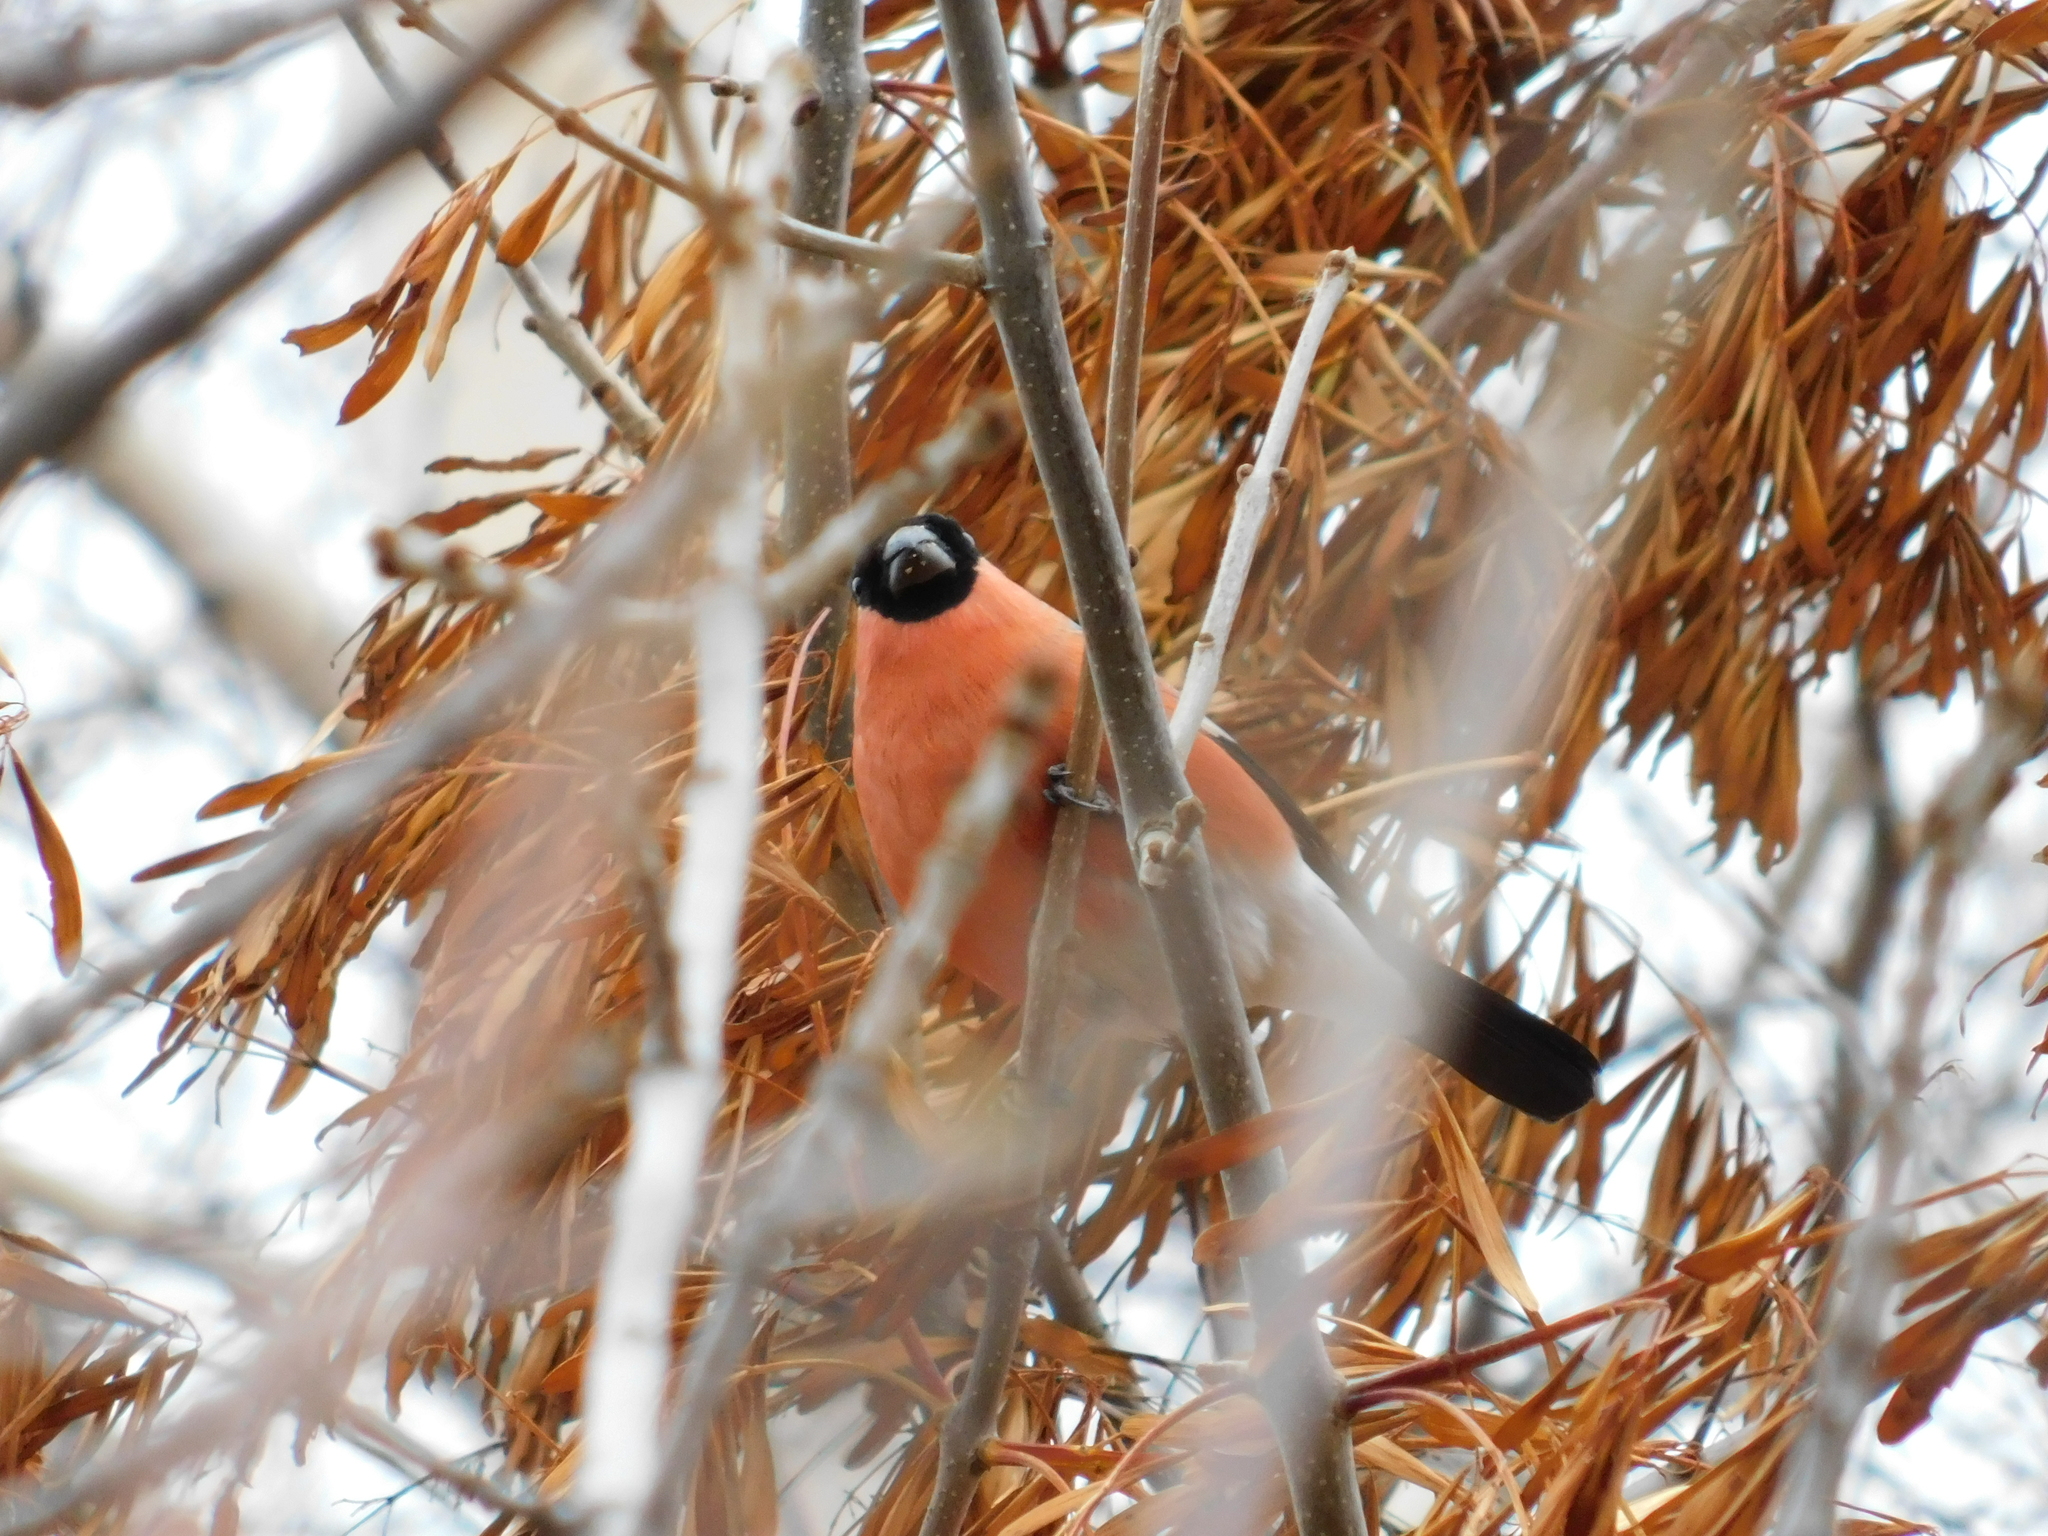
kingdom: Animalia
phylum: Chordata
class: Aves
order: Passeriformes
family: Fringillidae
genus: Pyrrhula
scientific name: Pyrrhula pyrrhula
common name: Eurasian bullfinch
